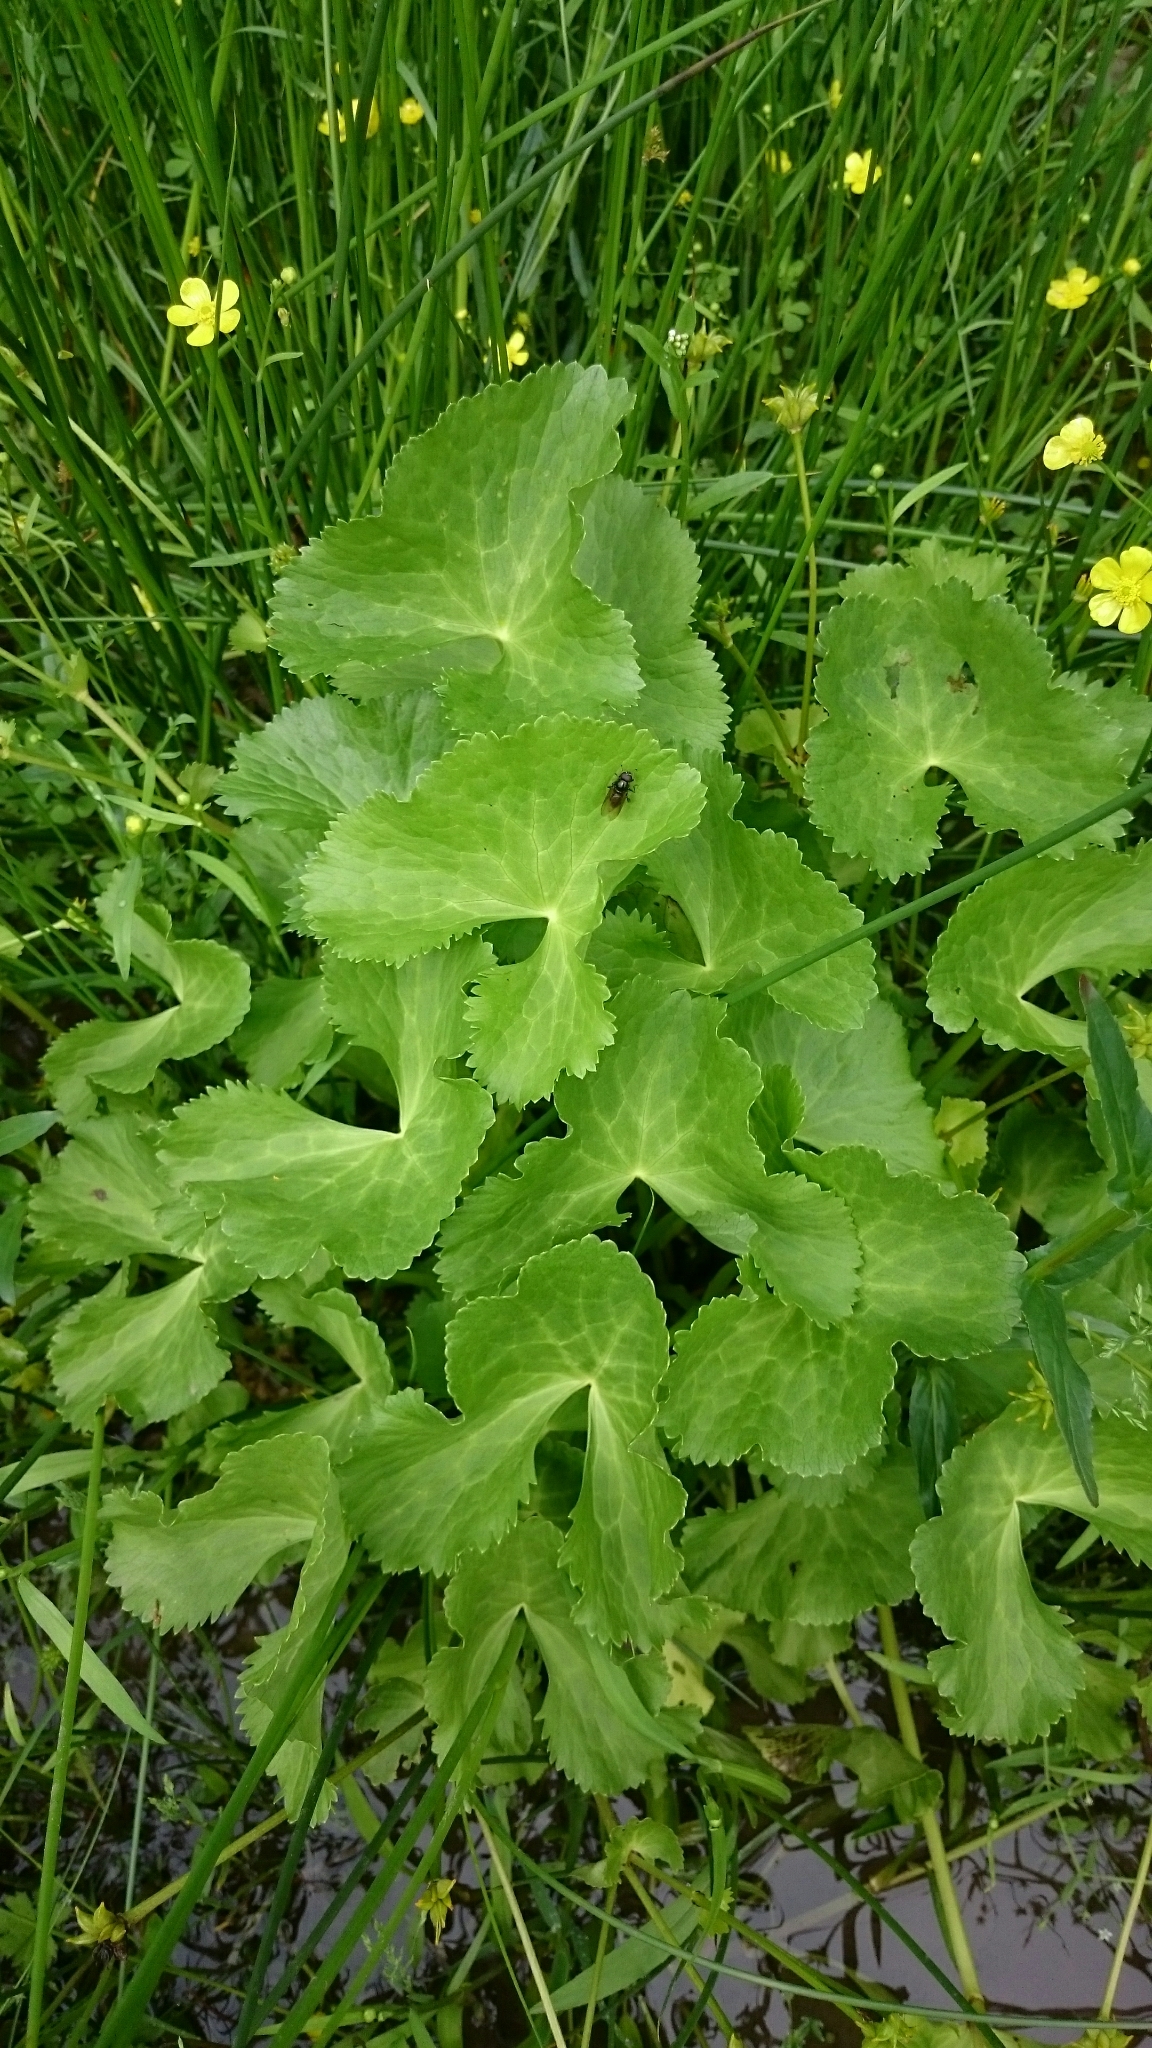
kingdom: Plantae
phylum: Tracheophyta
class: Magnoliopsida
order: Ranunculales
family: Ranunculaceae
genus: Caltha
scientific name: Caltha palustris
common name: Marsh marigold
